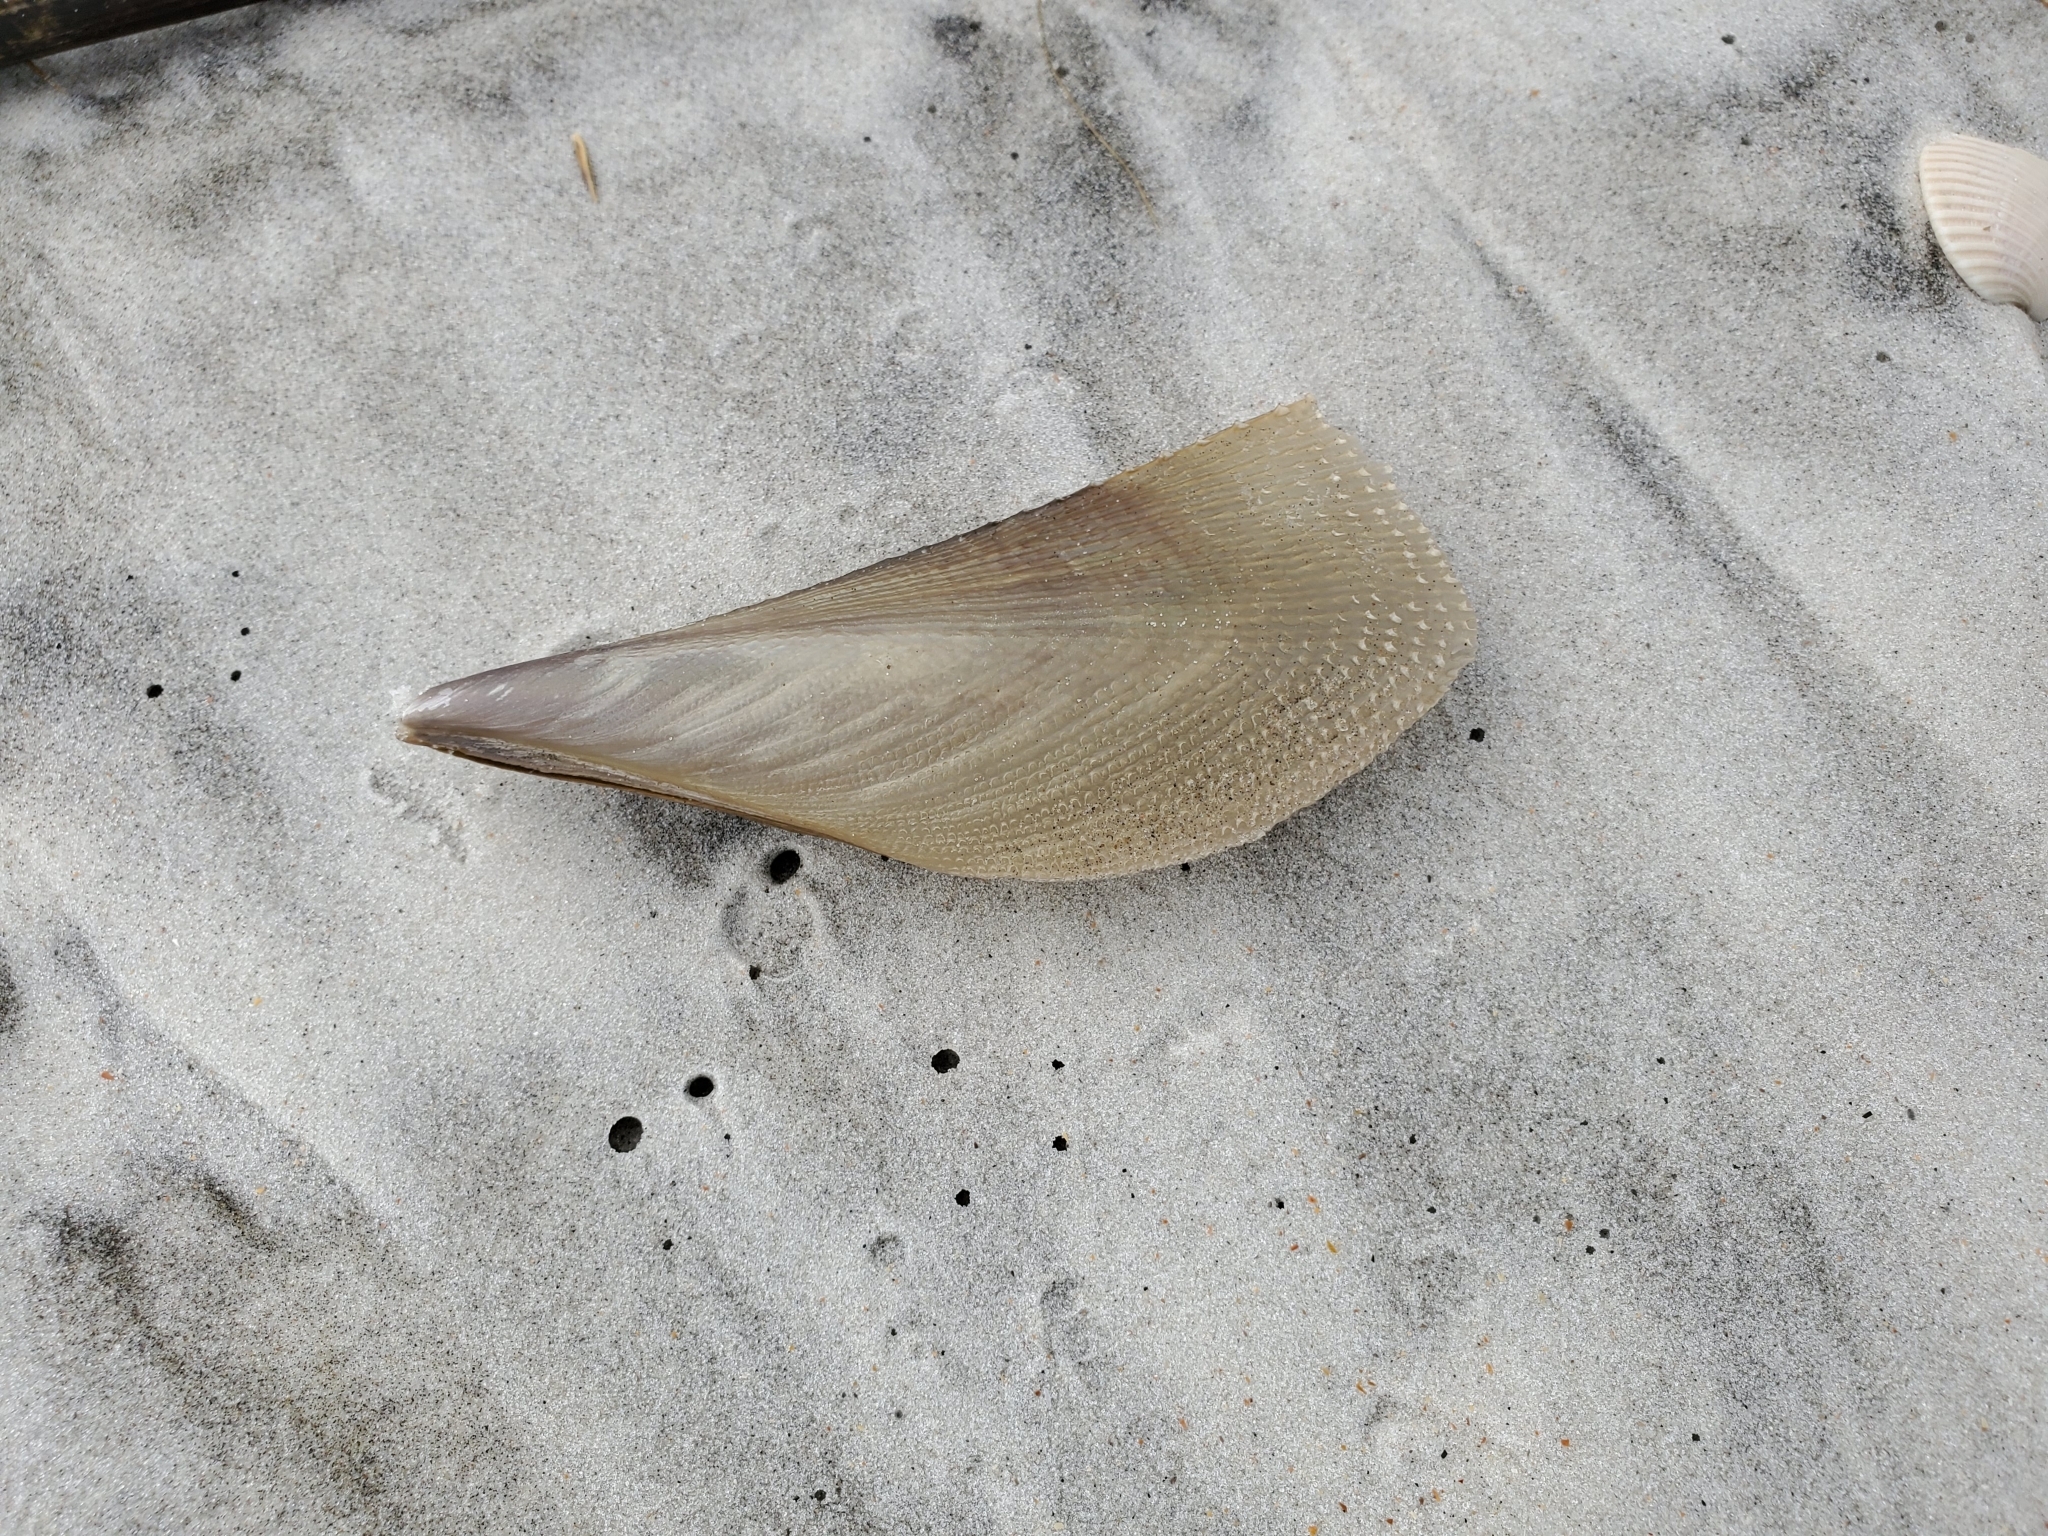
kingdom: Animalia
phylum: Mollusca
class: Bivalvia
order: Ostreida
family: Pinnidae
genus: Atrina
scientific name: Atrina serrata
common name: Saw-toothed penshell
